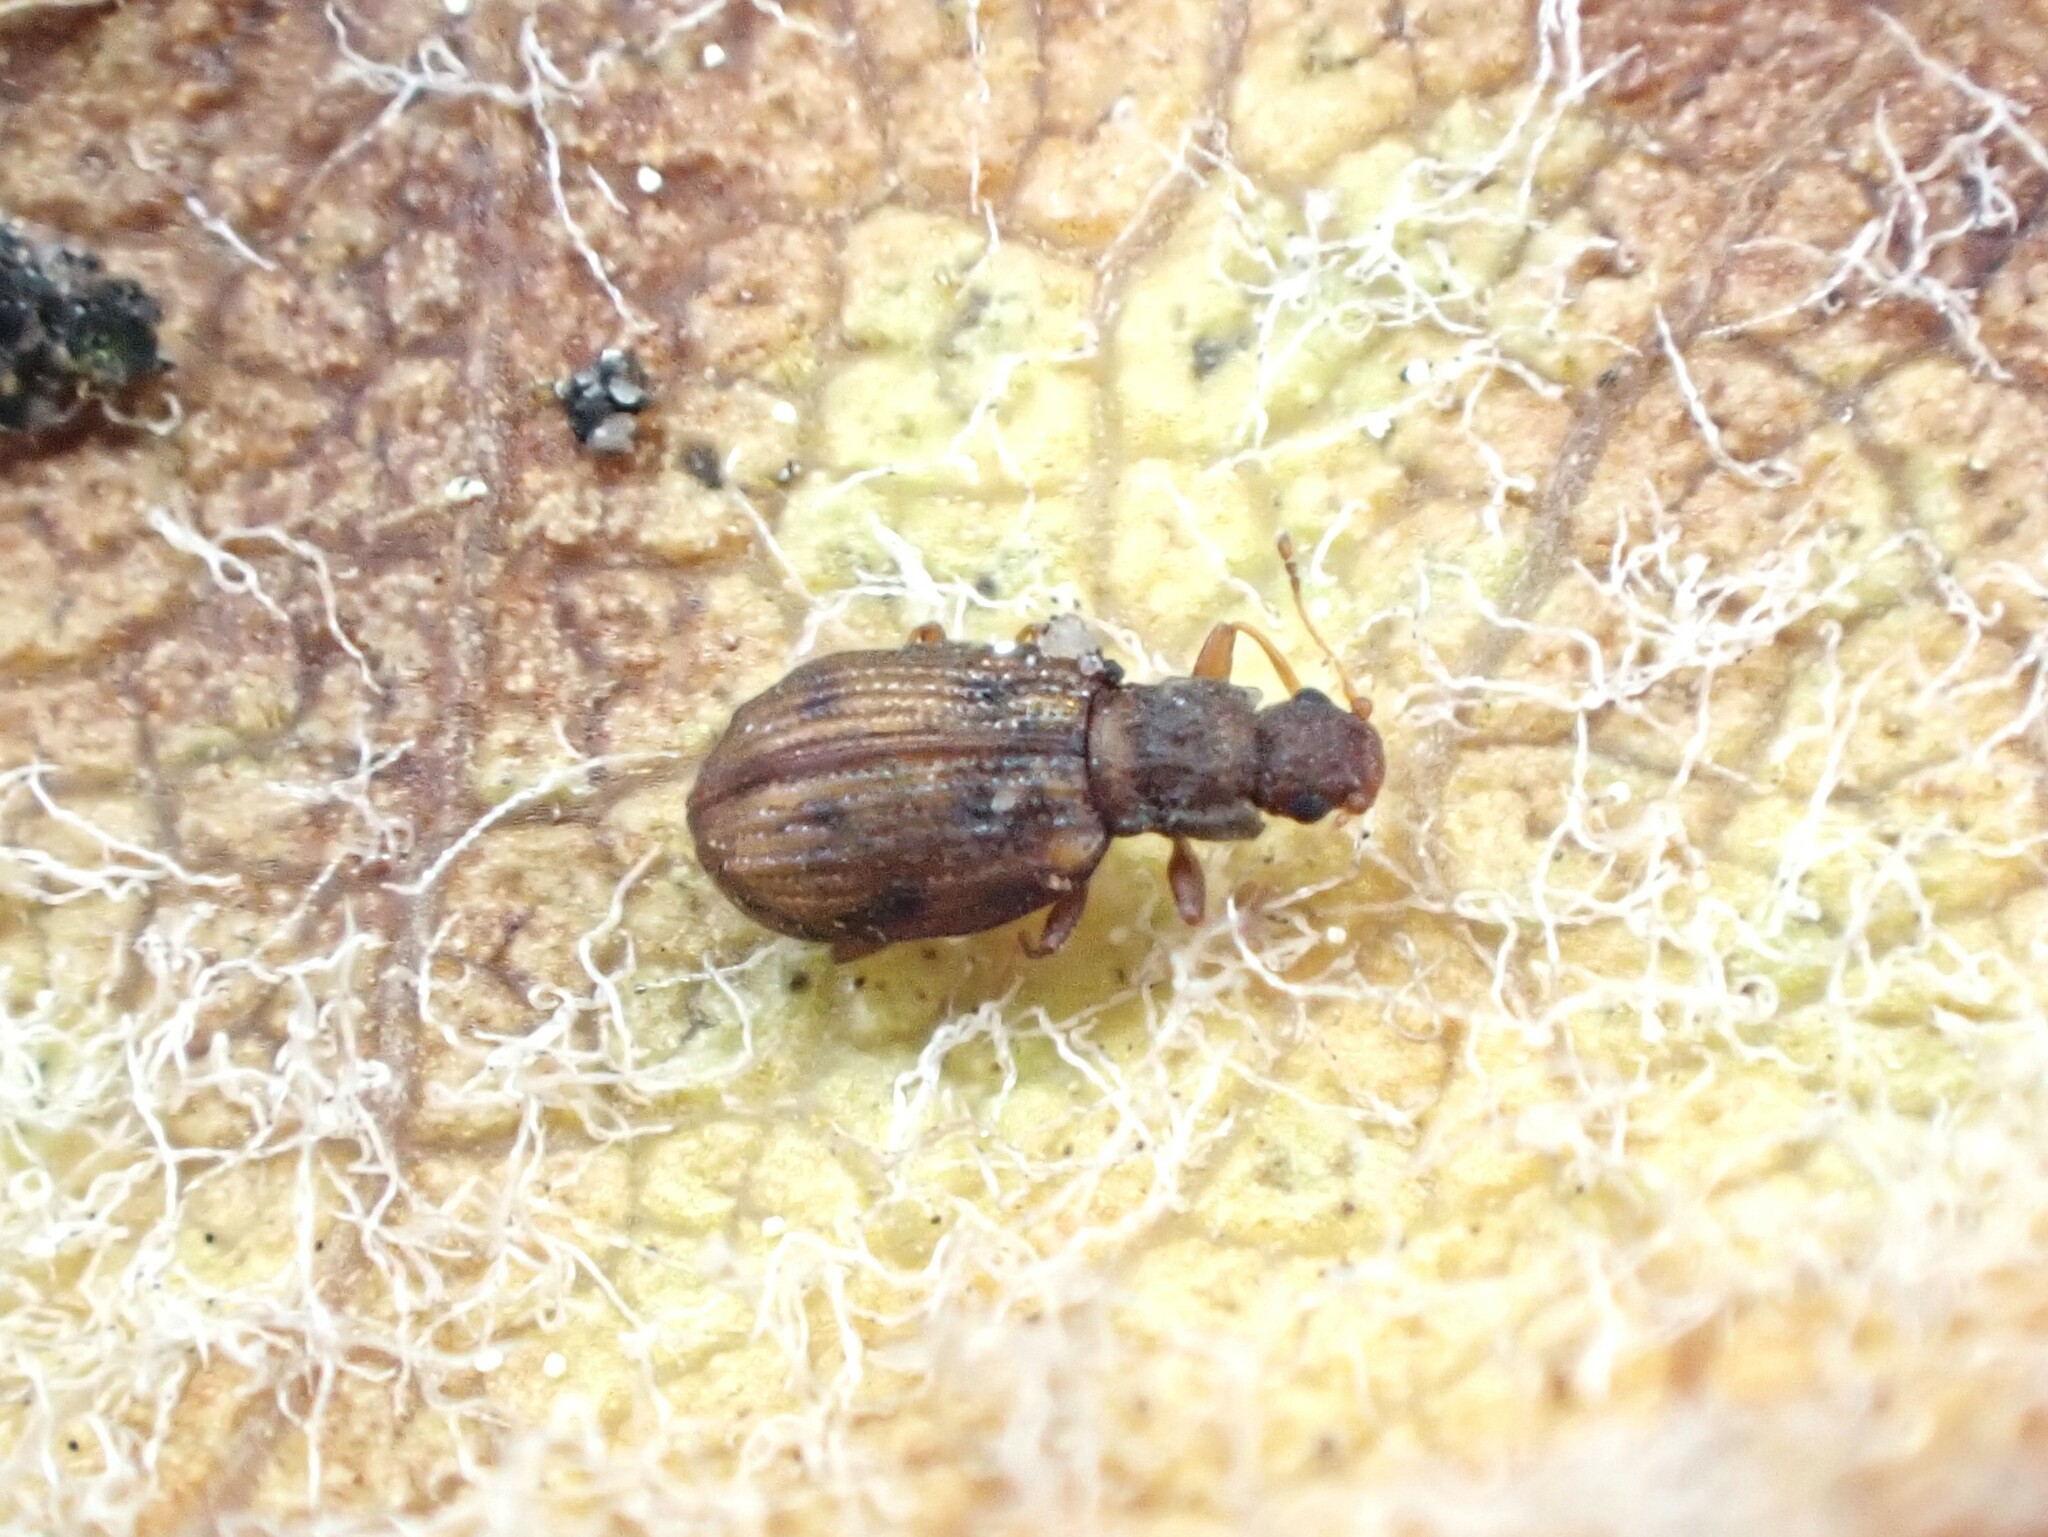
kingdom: Animalia
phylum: Arthropoda
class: Insecta
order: Coleoptera
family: Latridiidae
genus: Cartodere
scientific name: Cartodere bifasciata
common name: Plaster beetle
